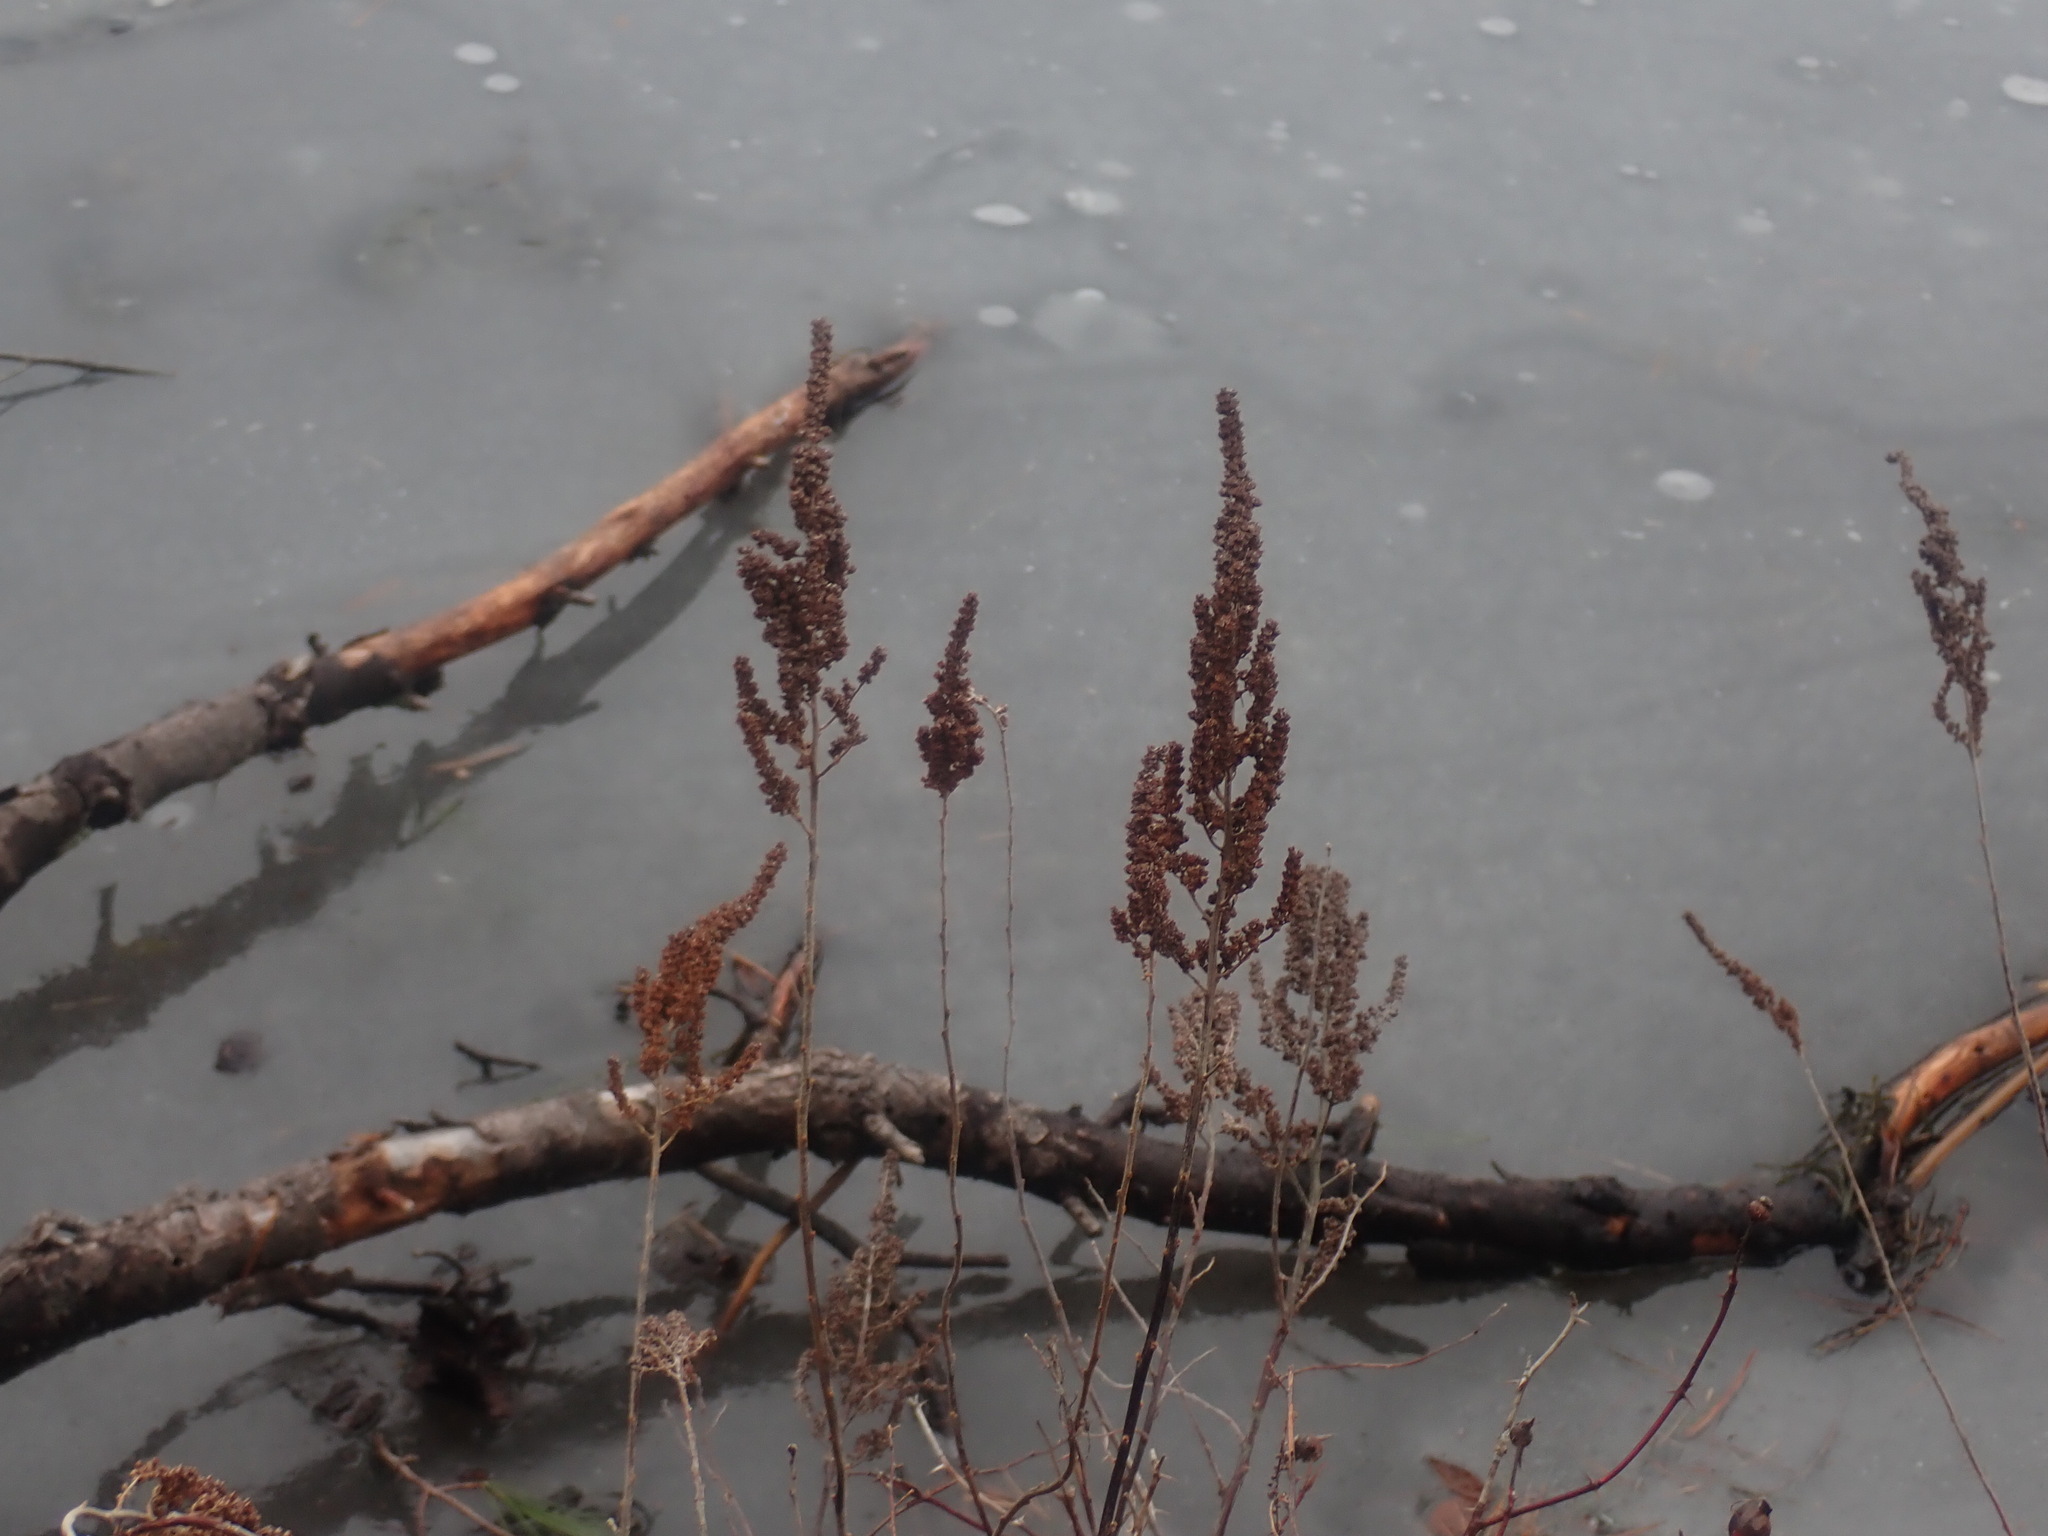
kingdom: Plantae
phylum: Tracheophyta
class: Magnoliopsida
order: Rosales
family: Rosaceae
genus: Spiraea
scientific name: Spiraea tomentosa
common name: Hardhack
